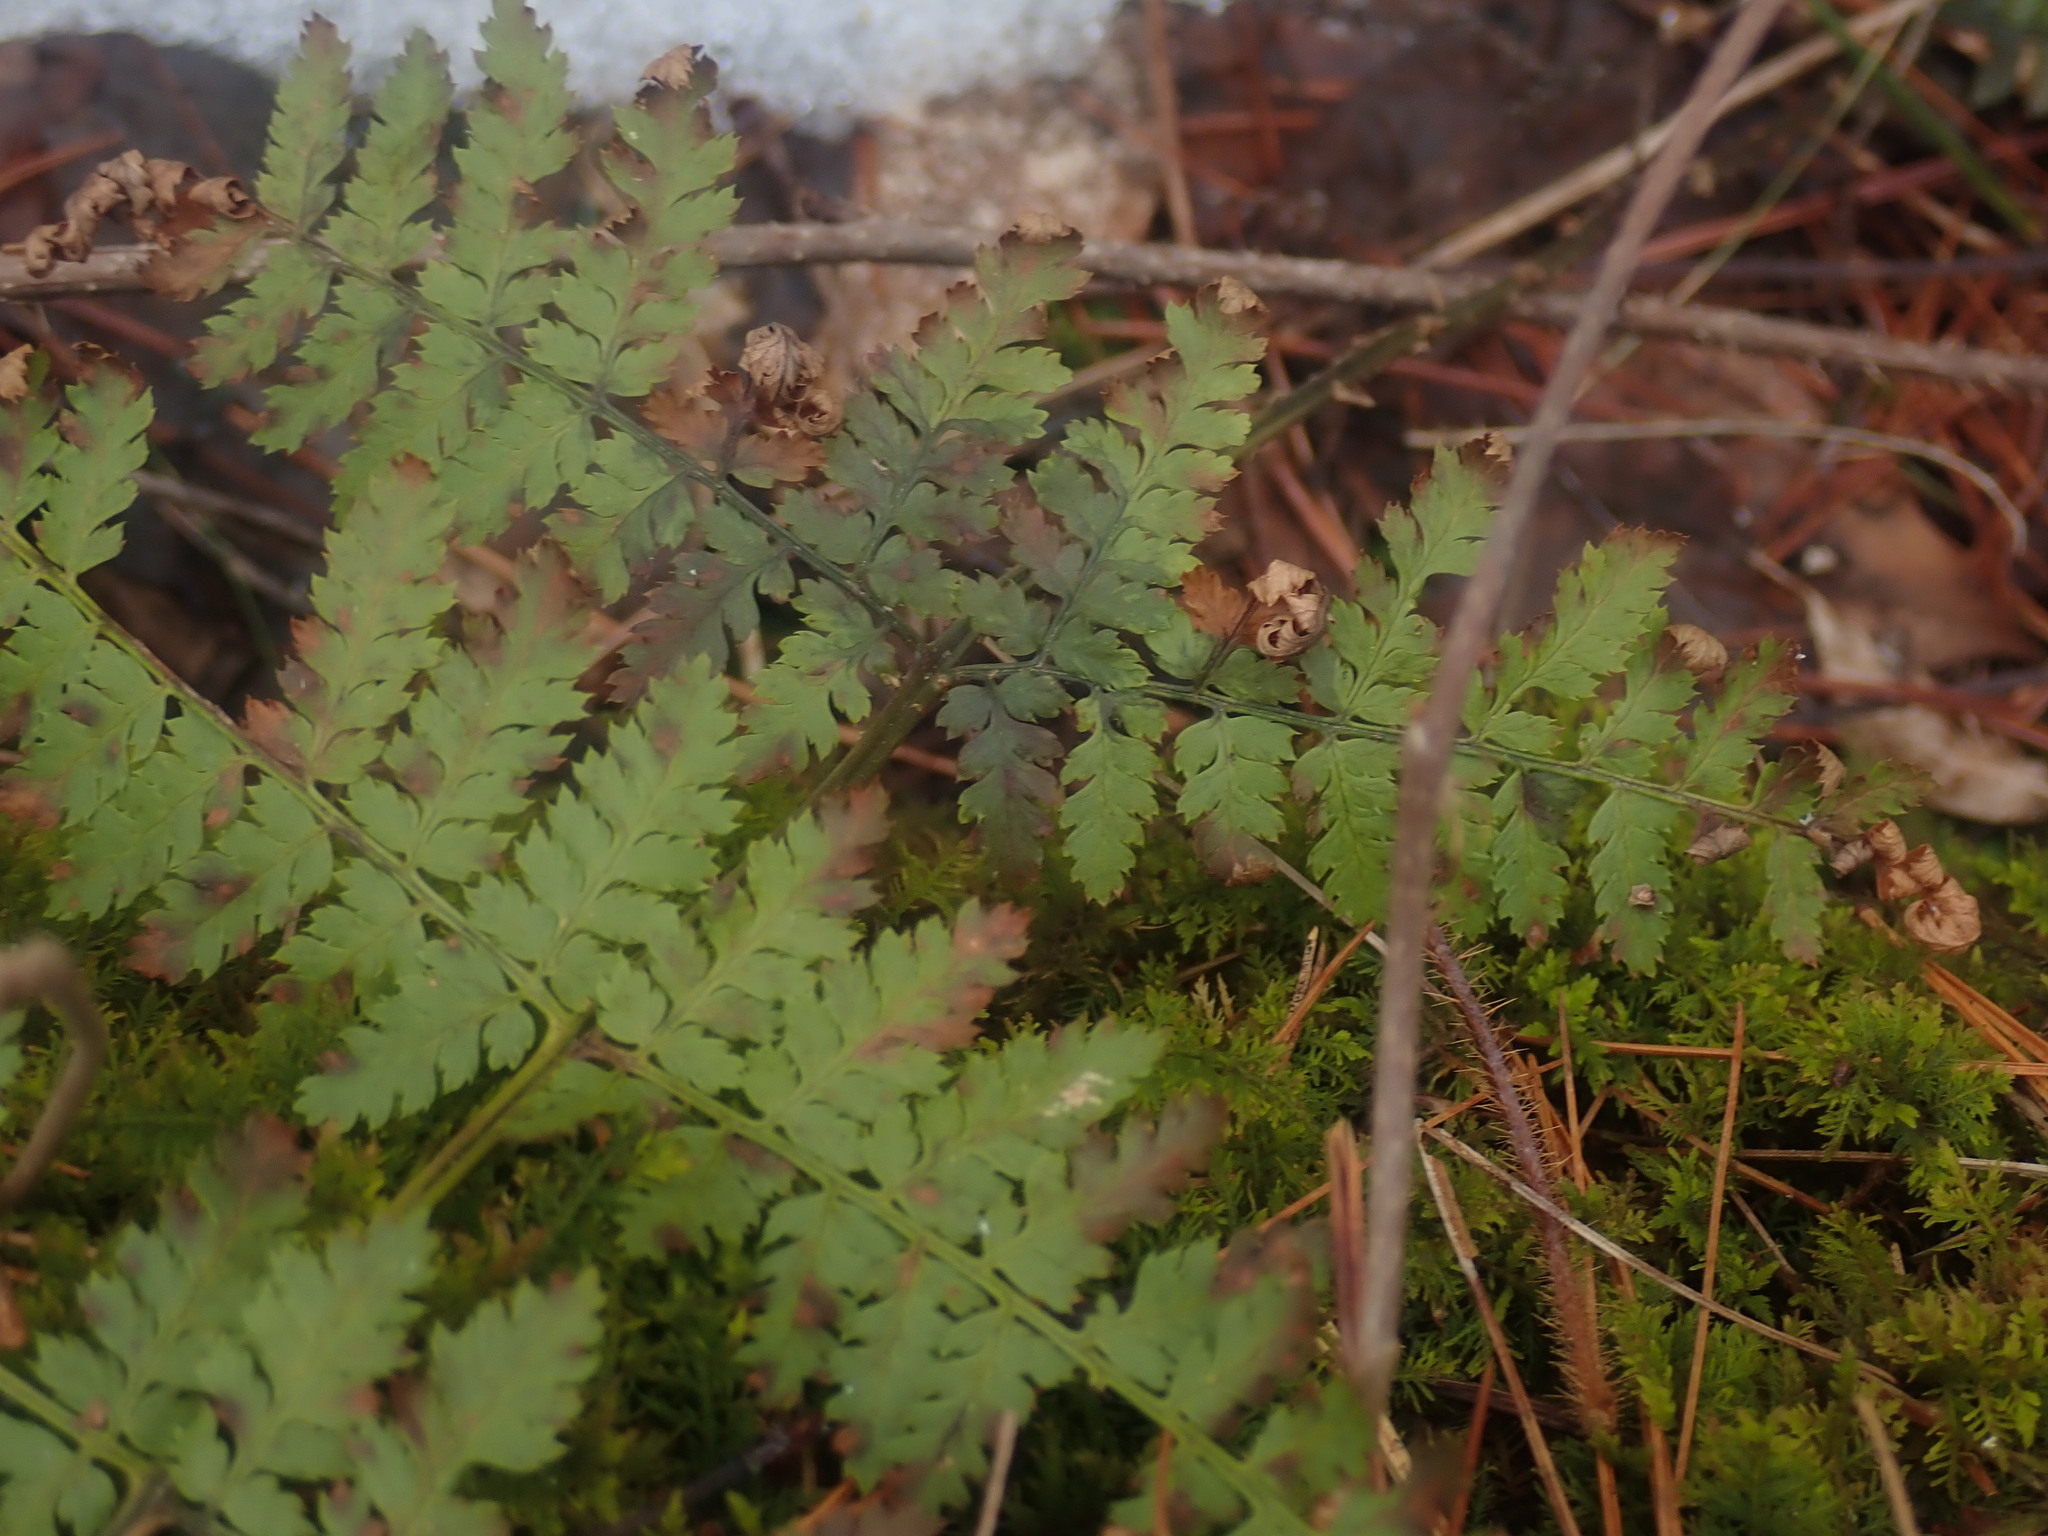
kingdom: Plantae
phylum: Tracheophyta
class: Polypodiopsida
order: Polypodiales
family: Dryopteridaceae
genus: Dryopteris
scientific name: Dryopteris intermedia
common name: Evergreen wood fern
